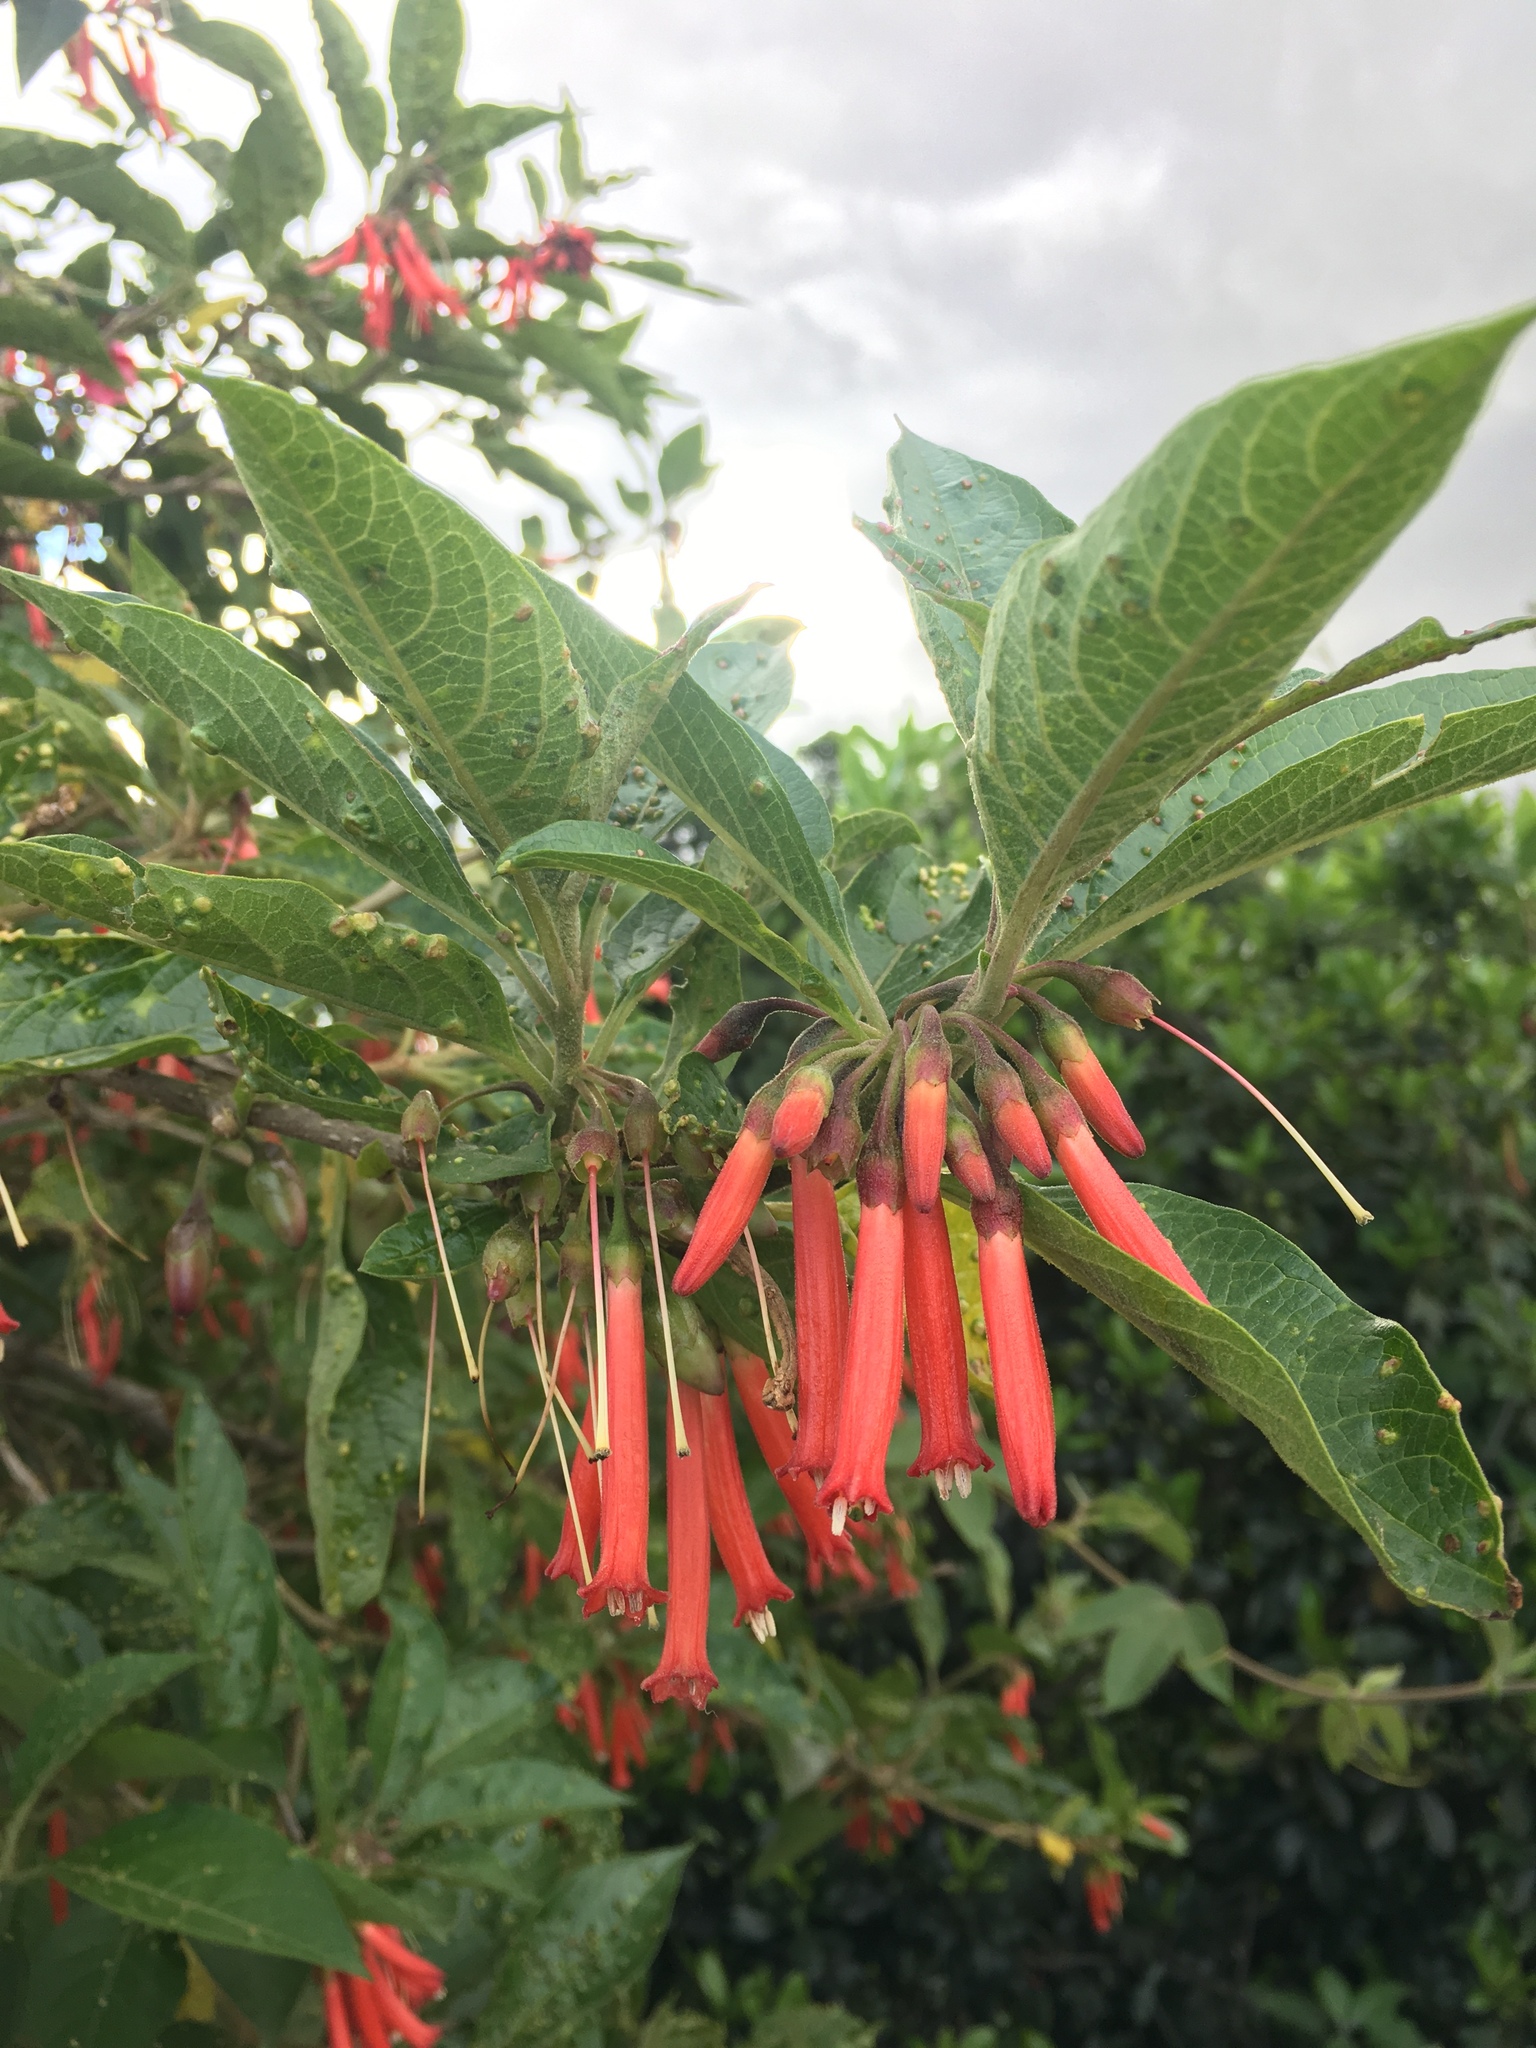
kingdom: Plantae
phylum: Tracheophyta
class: Magnoliopsida
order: Solanales
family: Solanaceae
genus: Iochroma
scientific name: Iochroma fuchsioides
